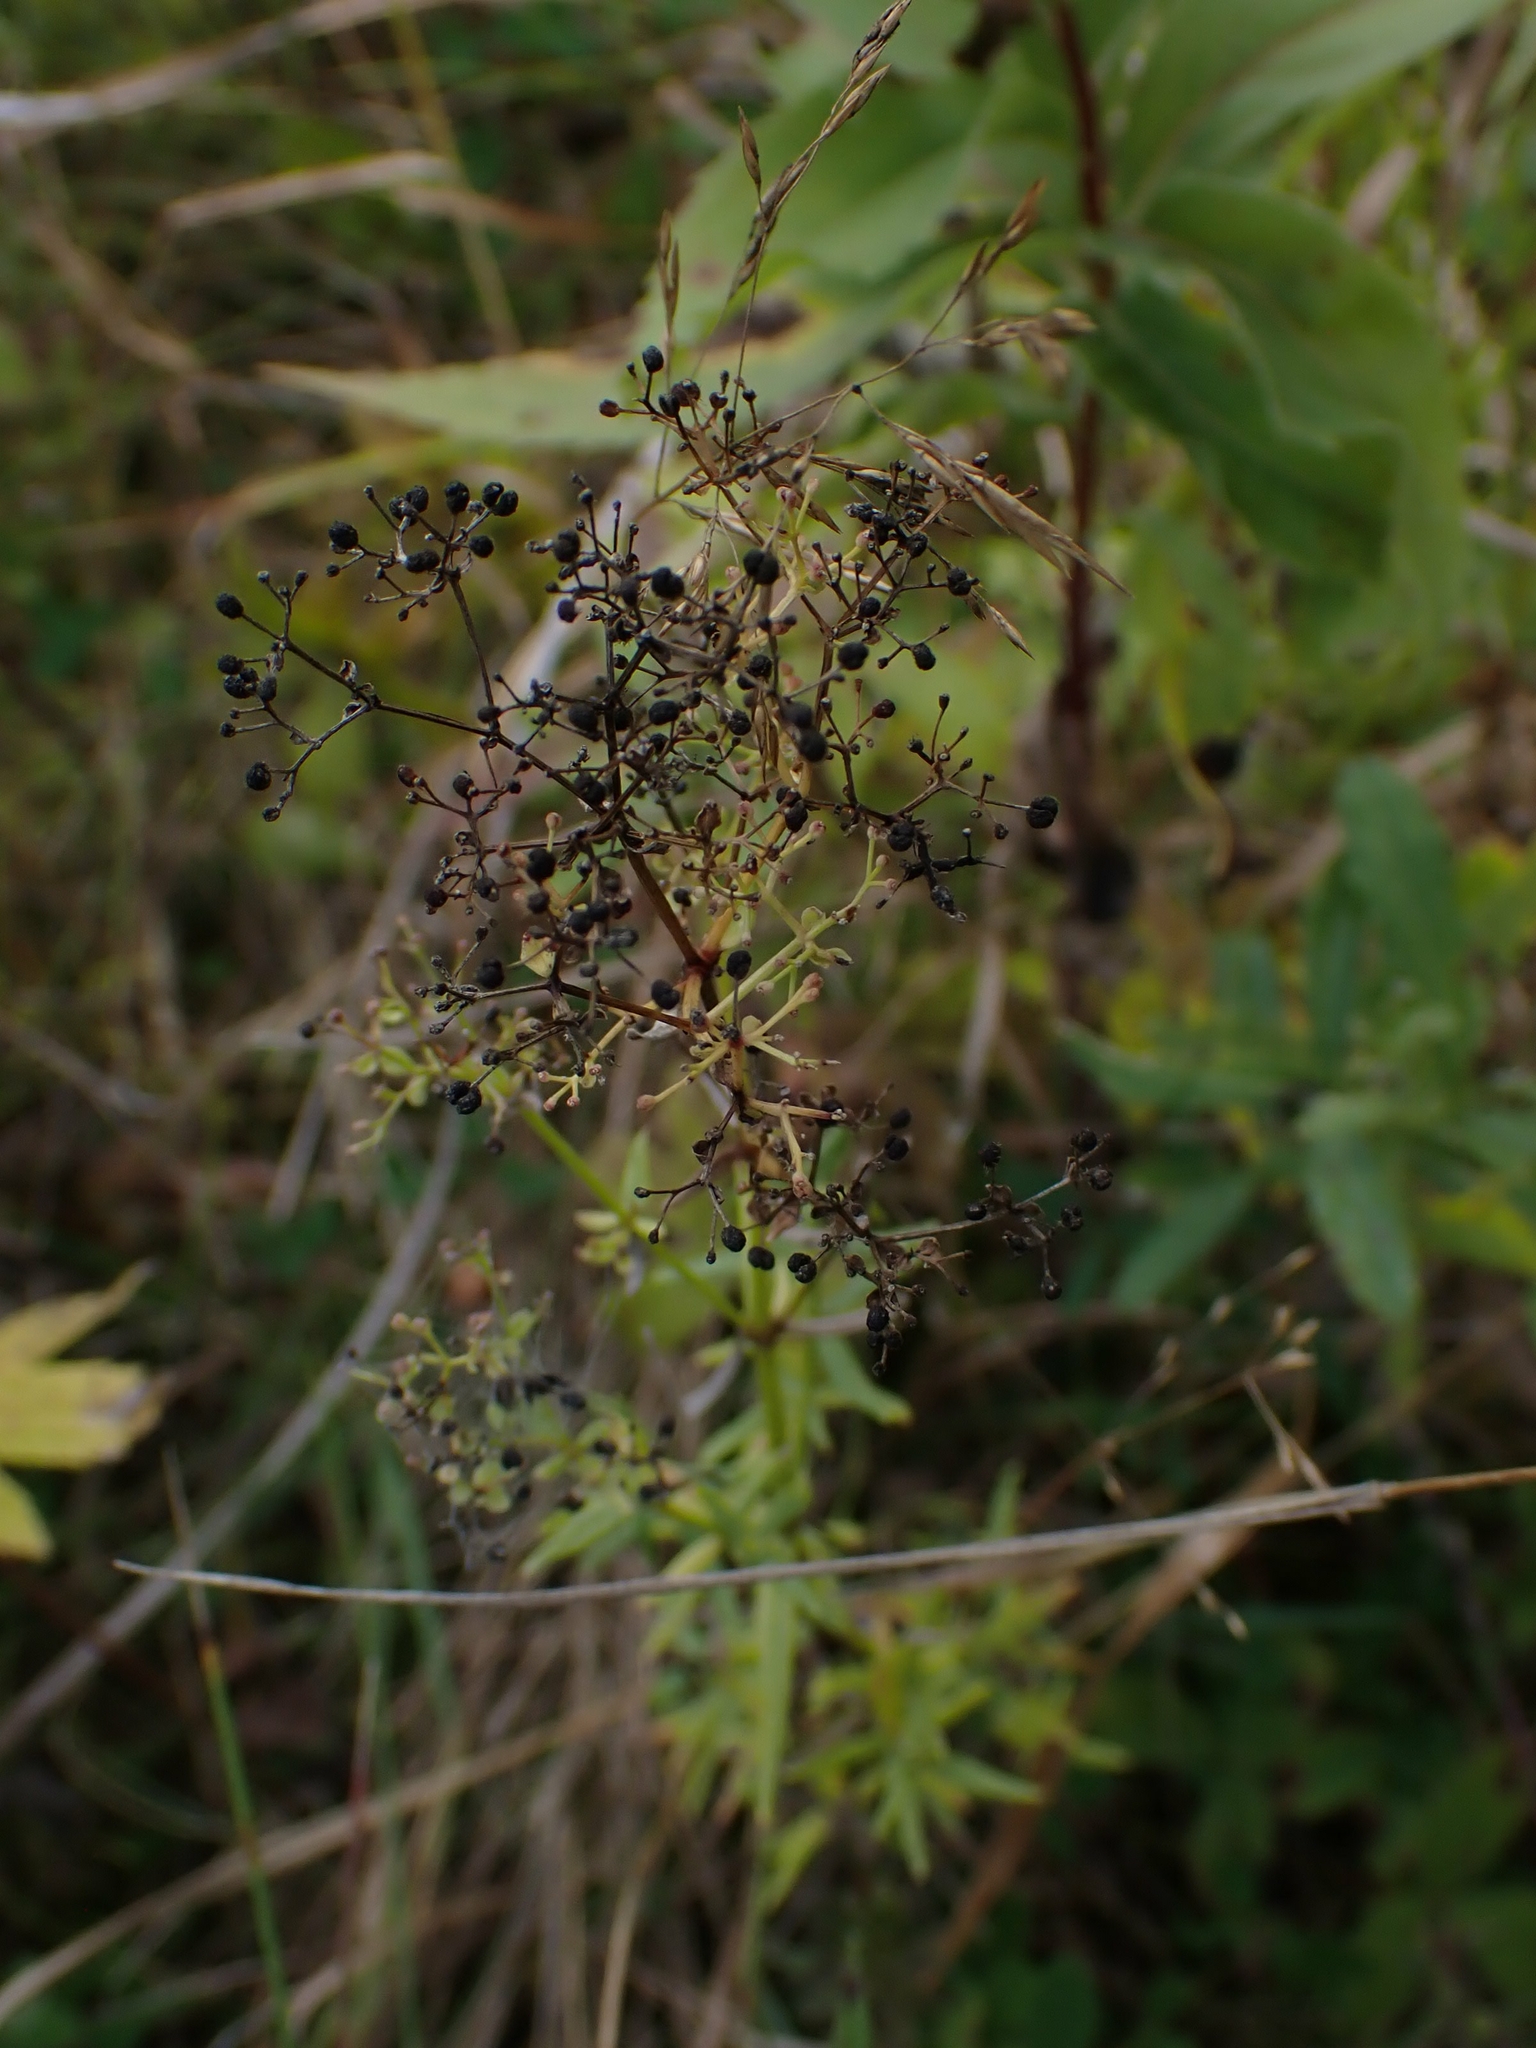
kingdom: Plantae
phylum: Tracheophyta
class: Magnoliopsida
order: Gentianales
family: Rubiaceae
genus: Galium
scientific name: Galium boreale
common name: Northern bedstraw
